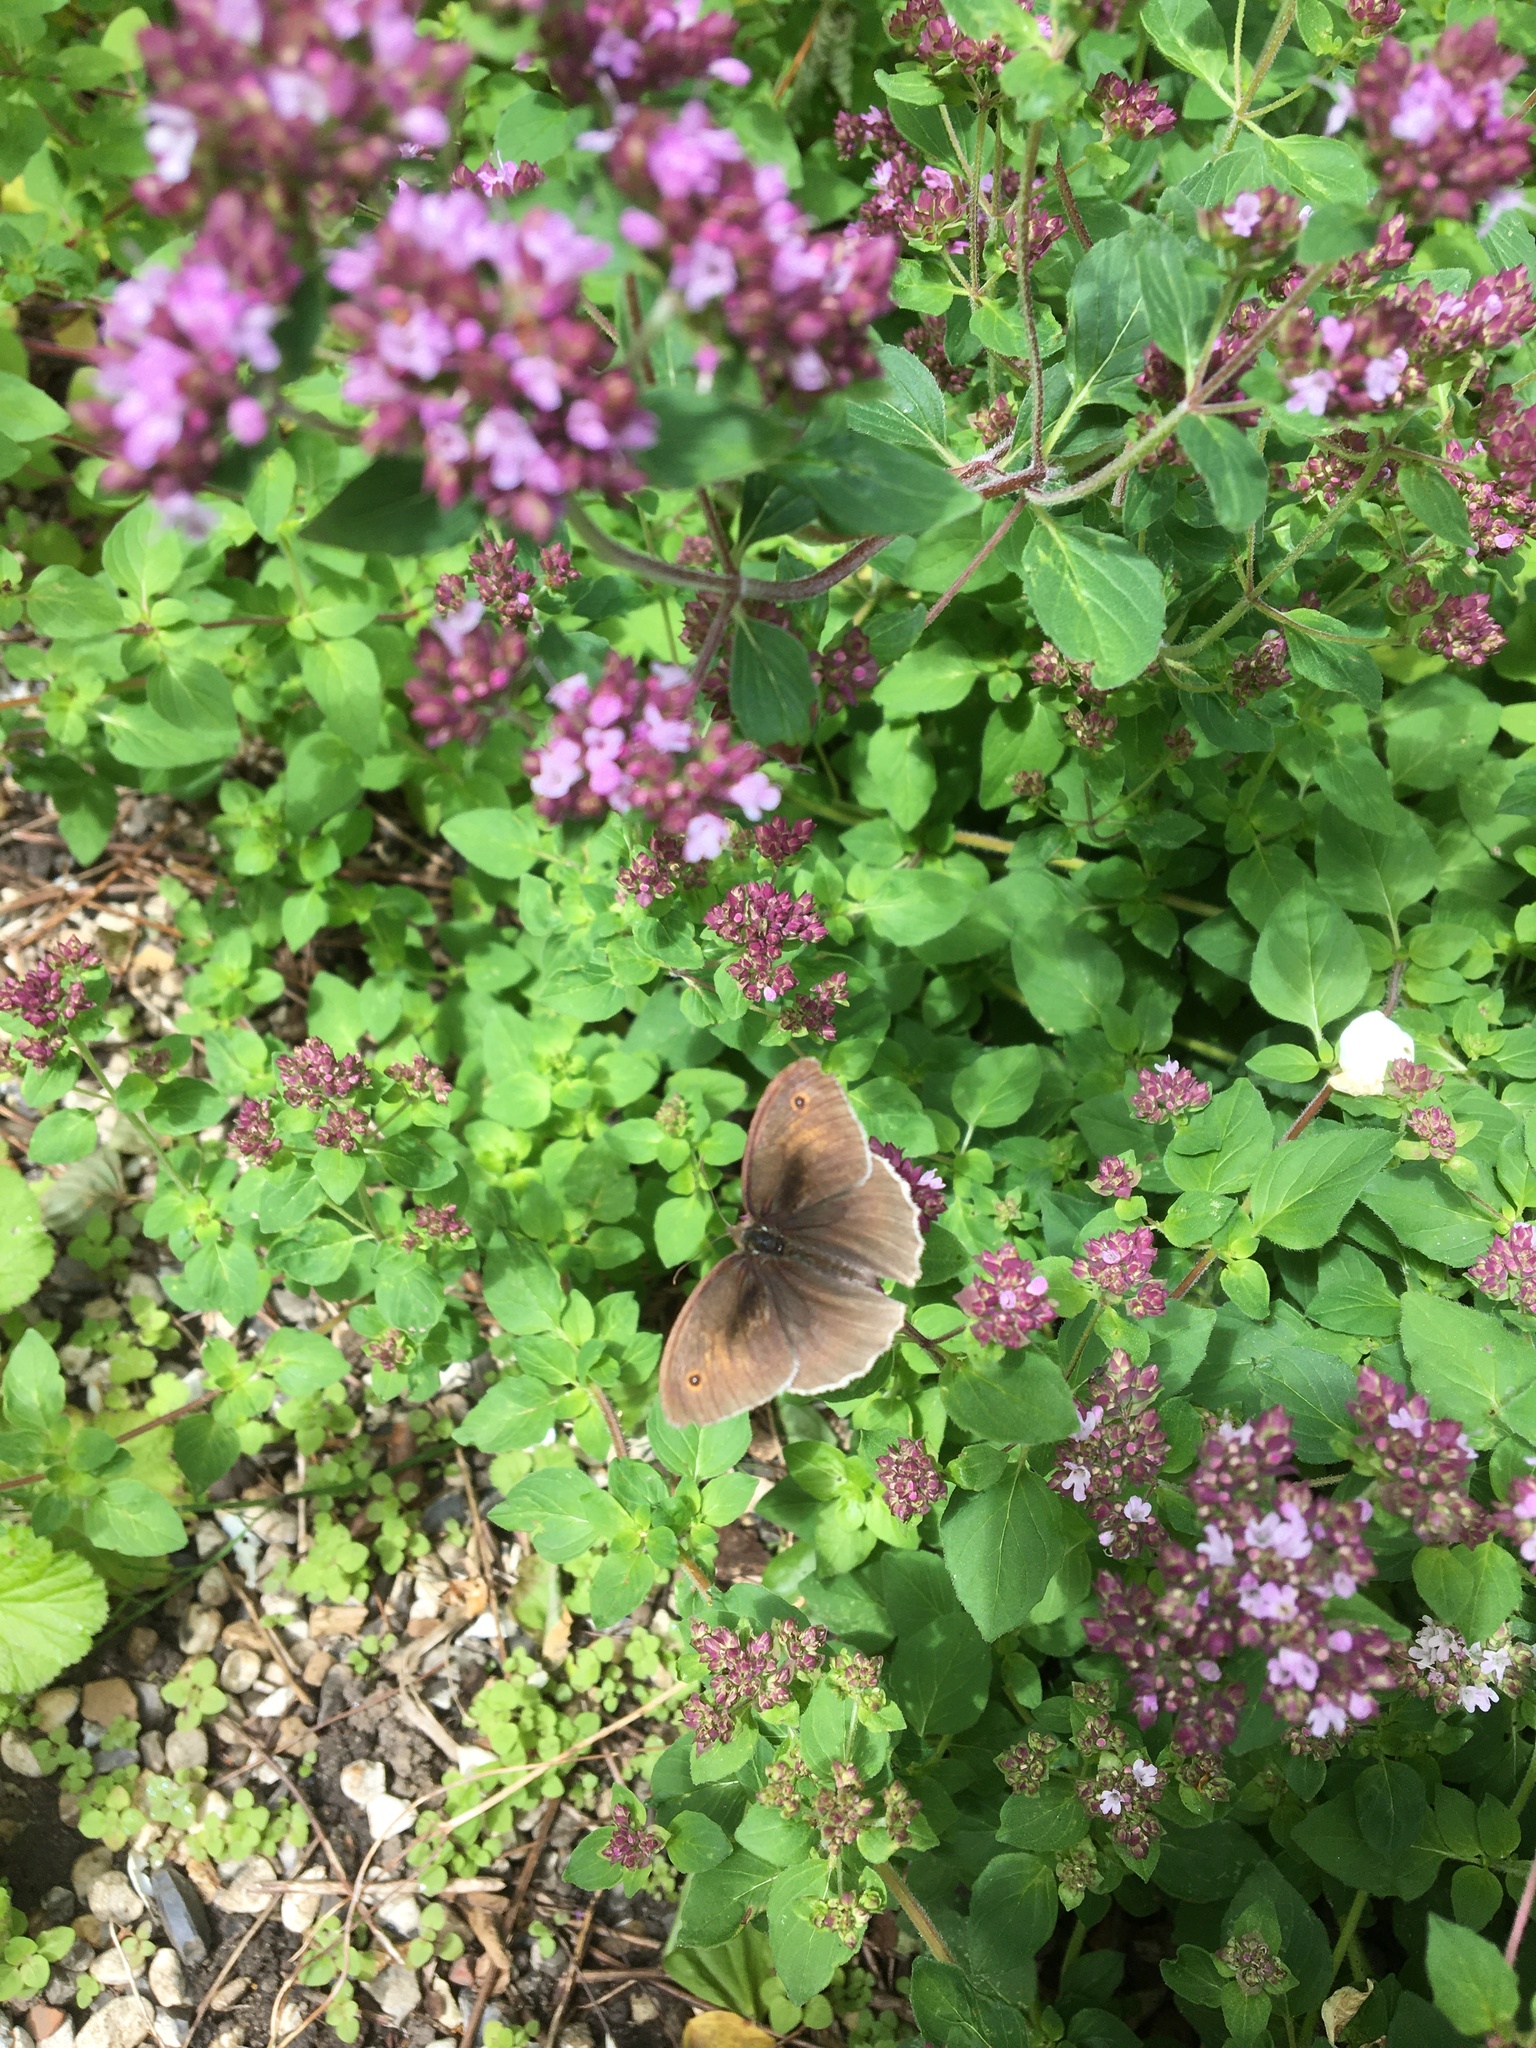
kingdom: Animalia
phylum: Arthropoda
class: Insecta
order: Lepidoptera
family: Nymphalidae
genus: Maniola
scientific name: Maniola jurtina
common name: Meadow brown
